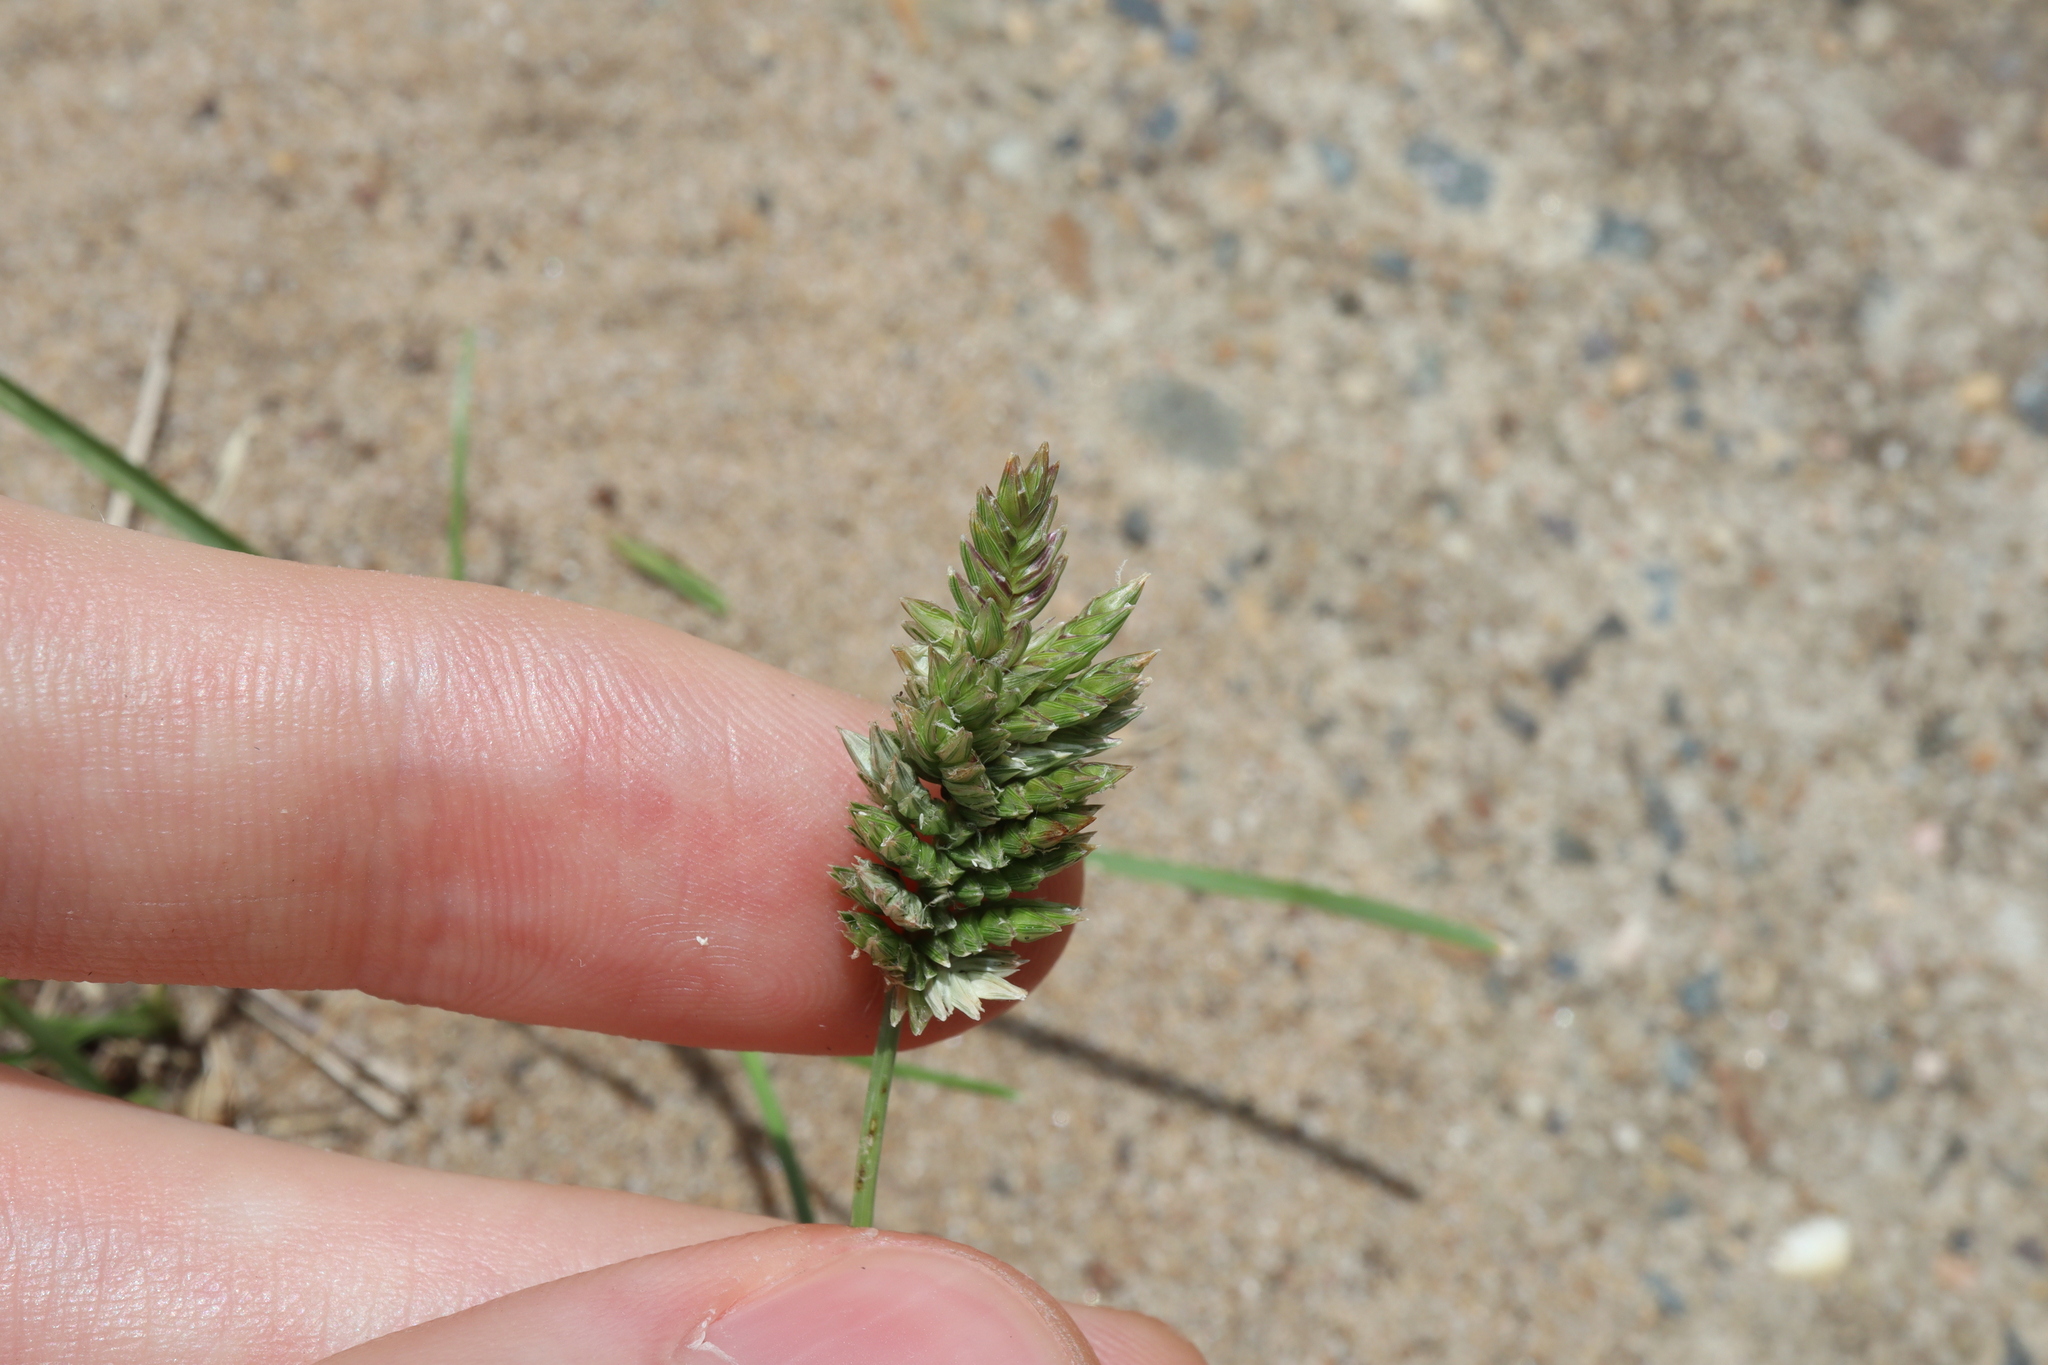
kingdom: Plantae
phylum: Tracheophyta
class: Liliopsida
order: Poales
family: Poaceae
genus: Eleusine
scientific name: Eleusine tristachya
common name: American yard-grass
